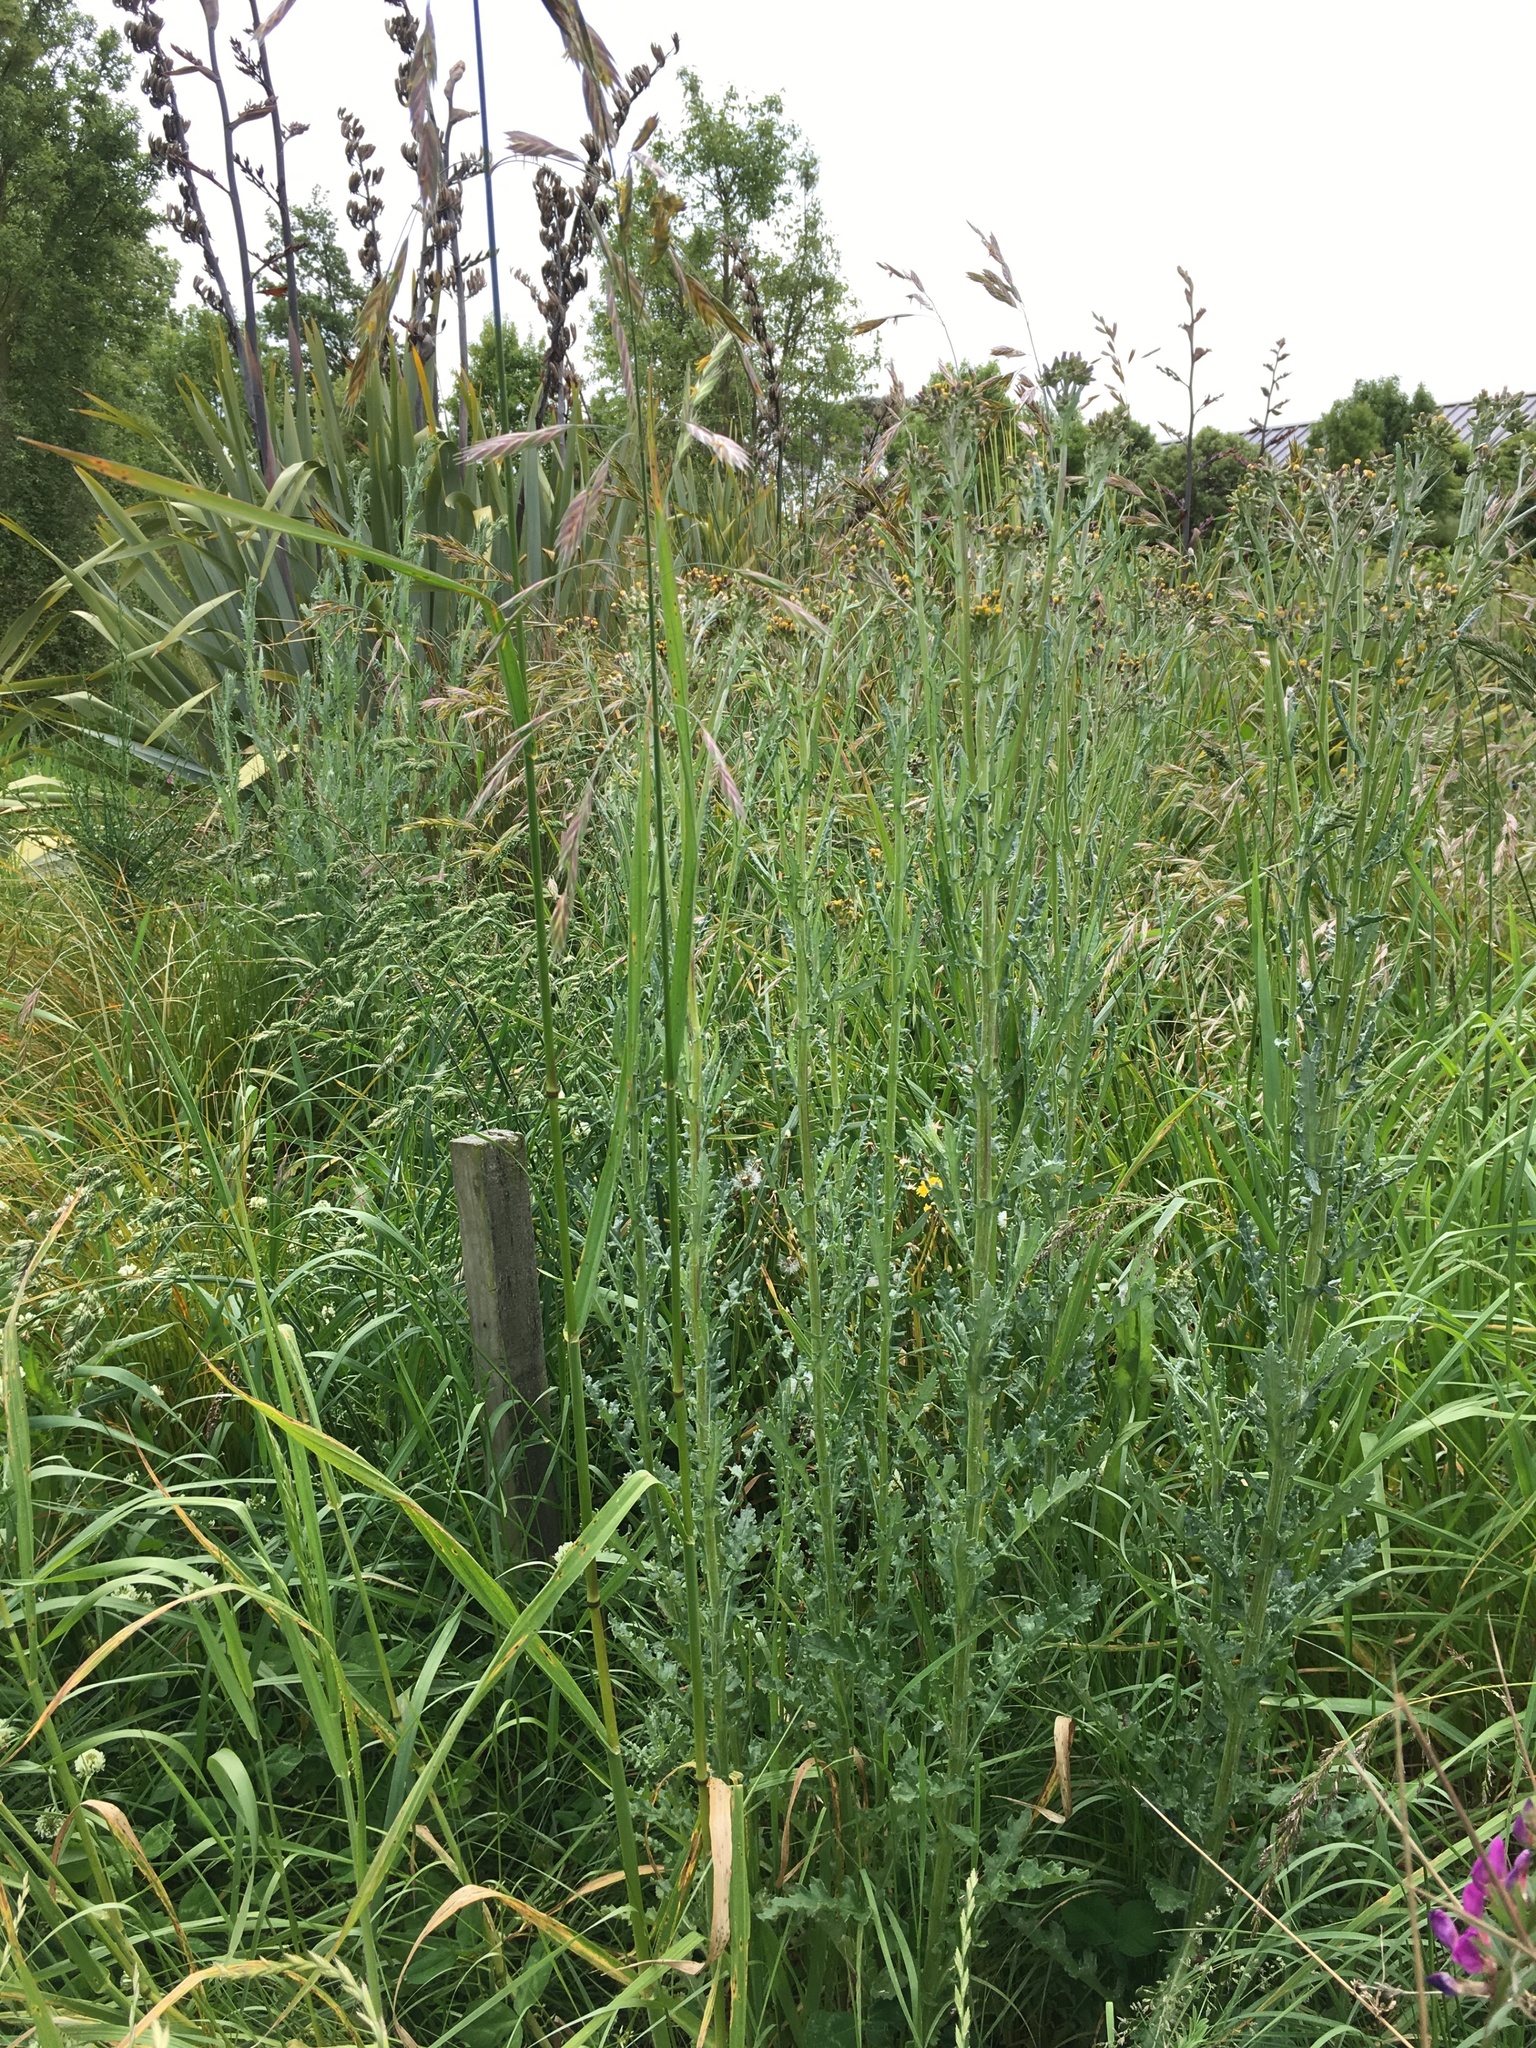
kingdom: Plantae
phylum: Tracheophyta
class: Magnoliopsida
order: Asterales
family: Asteraceae
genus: Senecio
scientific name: Senecio glomeratus
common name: Cutleaf burnweed
